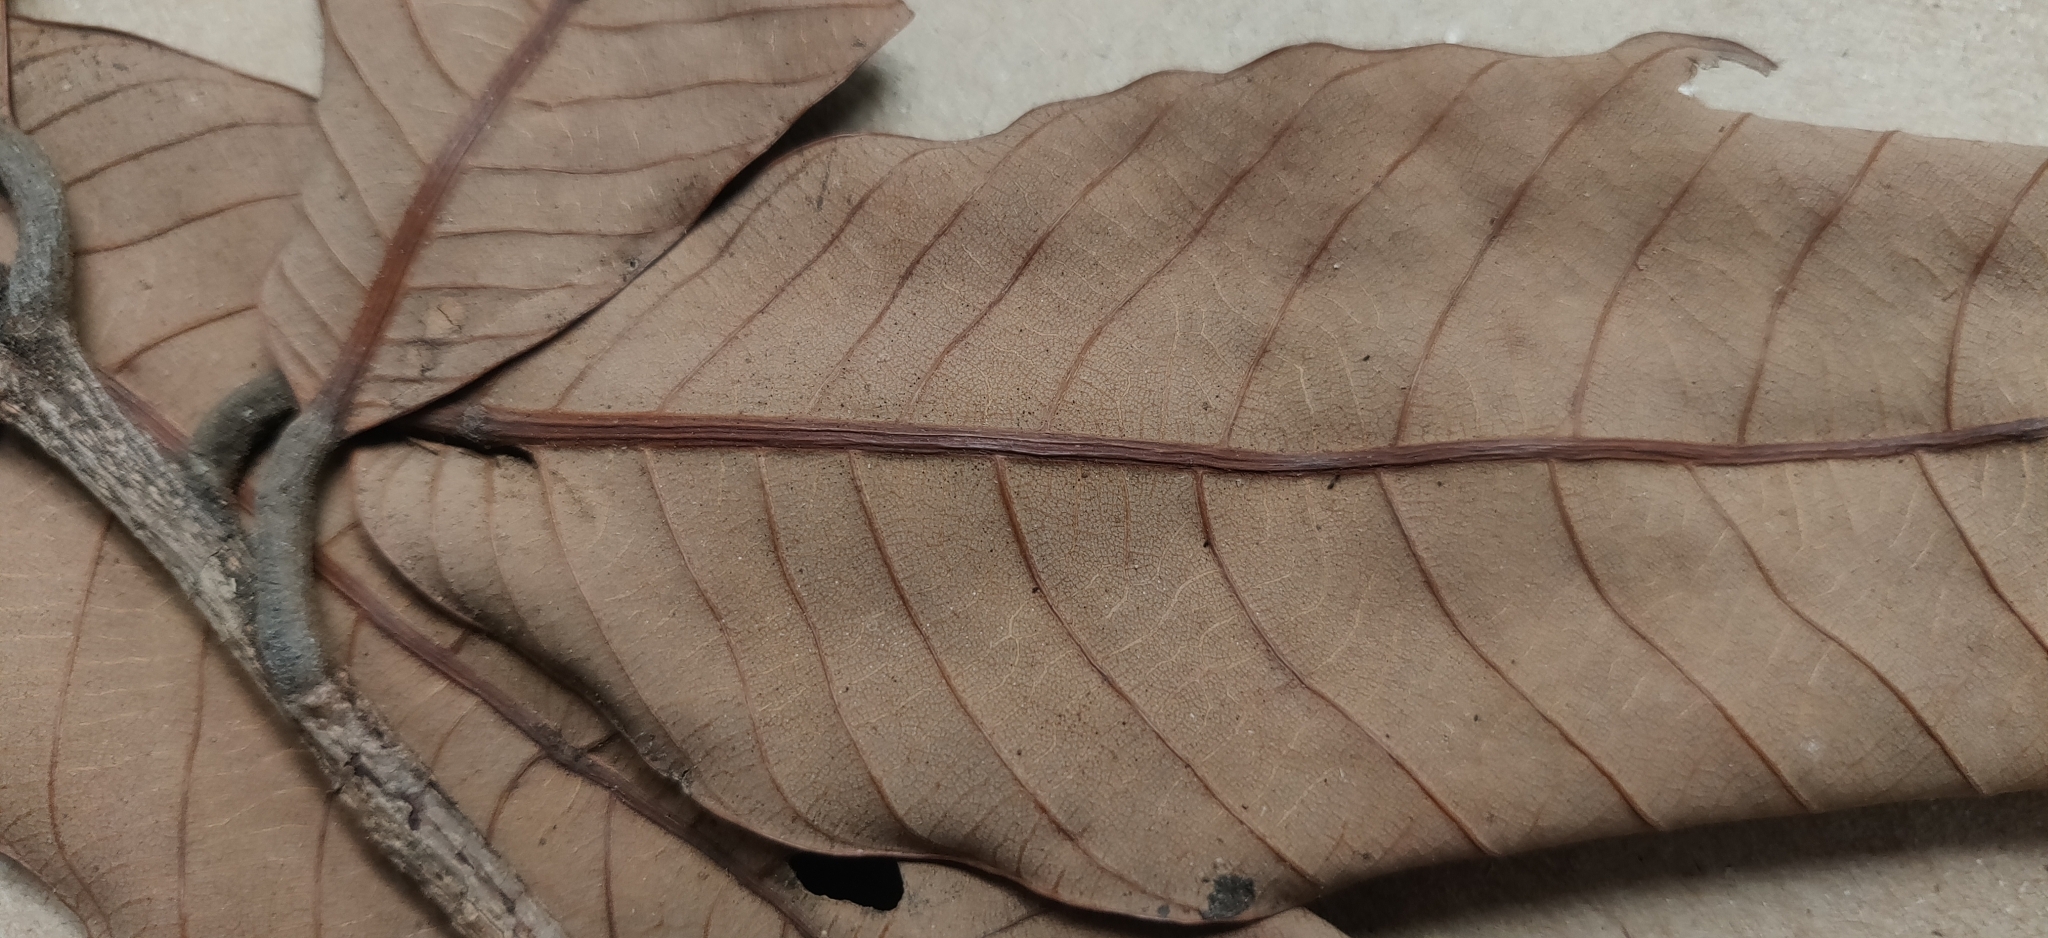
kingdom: Plantae
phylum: Tracheophyta
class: Magnoliopsida
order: Sapindales
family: Anacardiaceae
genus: Nothopegia
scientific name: Nothopegia beddomei
